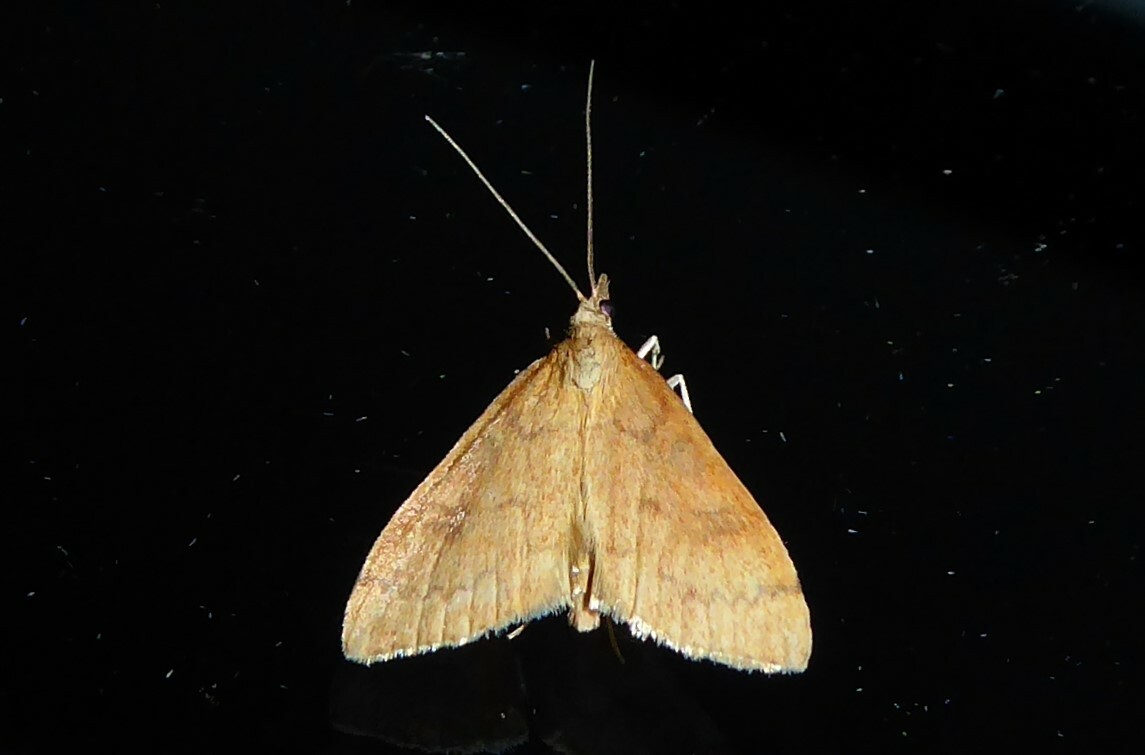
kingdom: Animalia
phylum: Arthropoda
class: Insecta
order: Lepidoptera
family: Crambidae
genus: Udea
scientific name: Udea Mnesictena flavidalis
